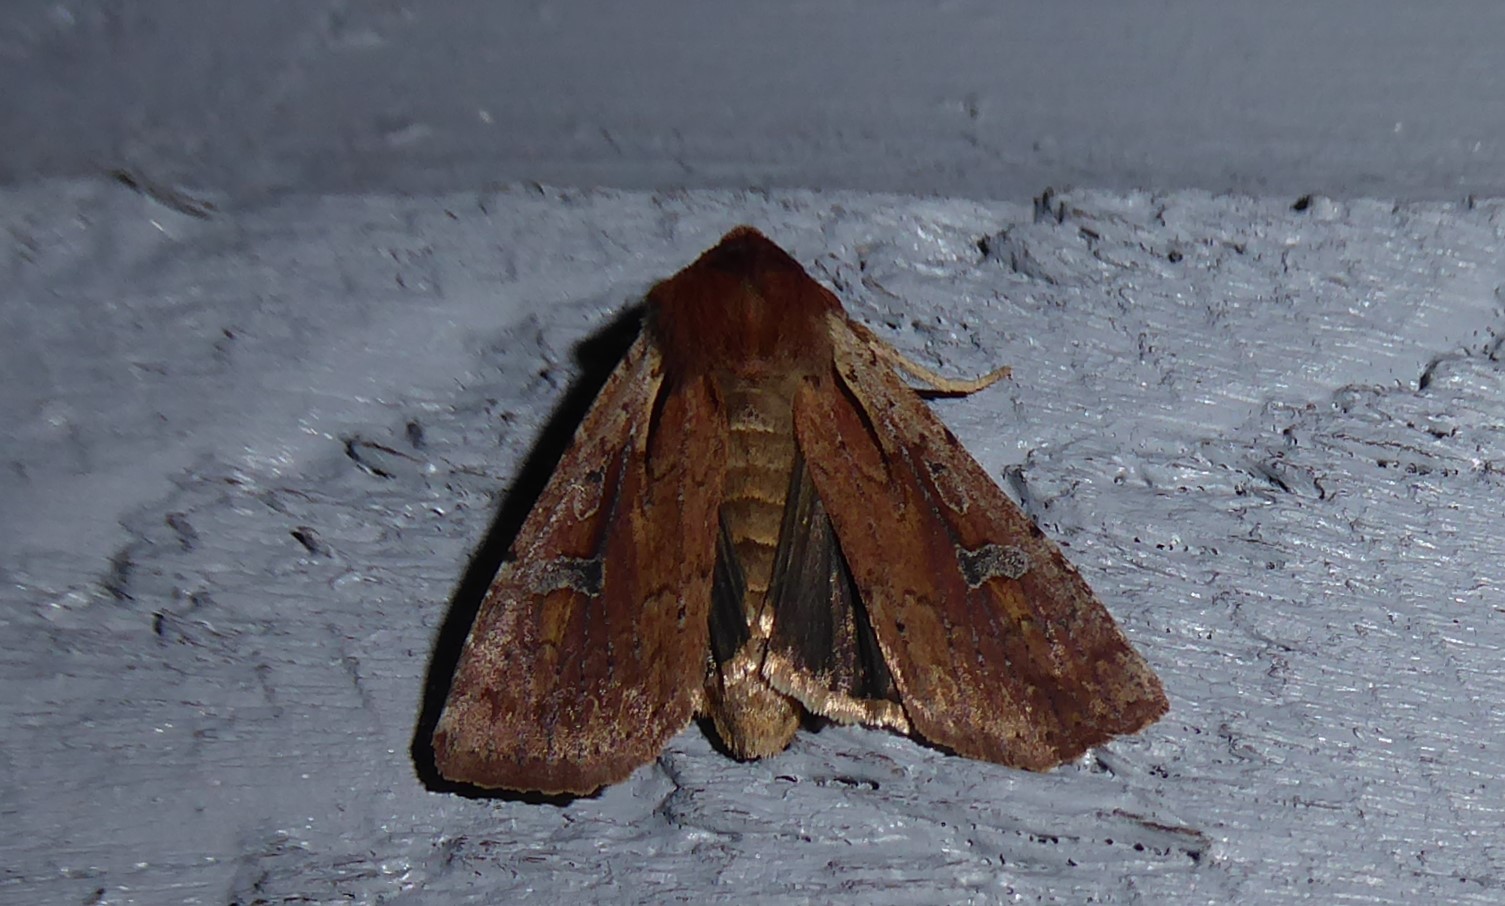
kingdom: Animalia
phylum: Arthropoda
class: Insecta
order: Lepidoptera
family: Noctuidae
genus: Ichneutica
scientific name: Ichneutica atristriga
